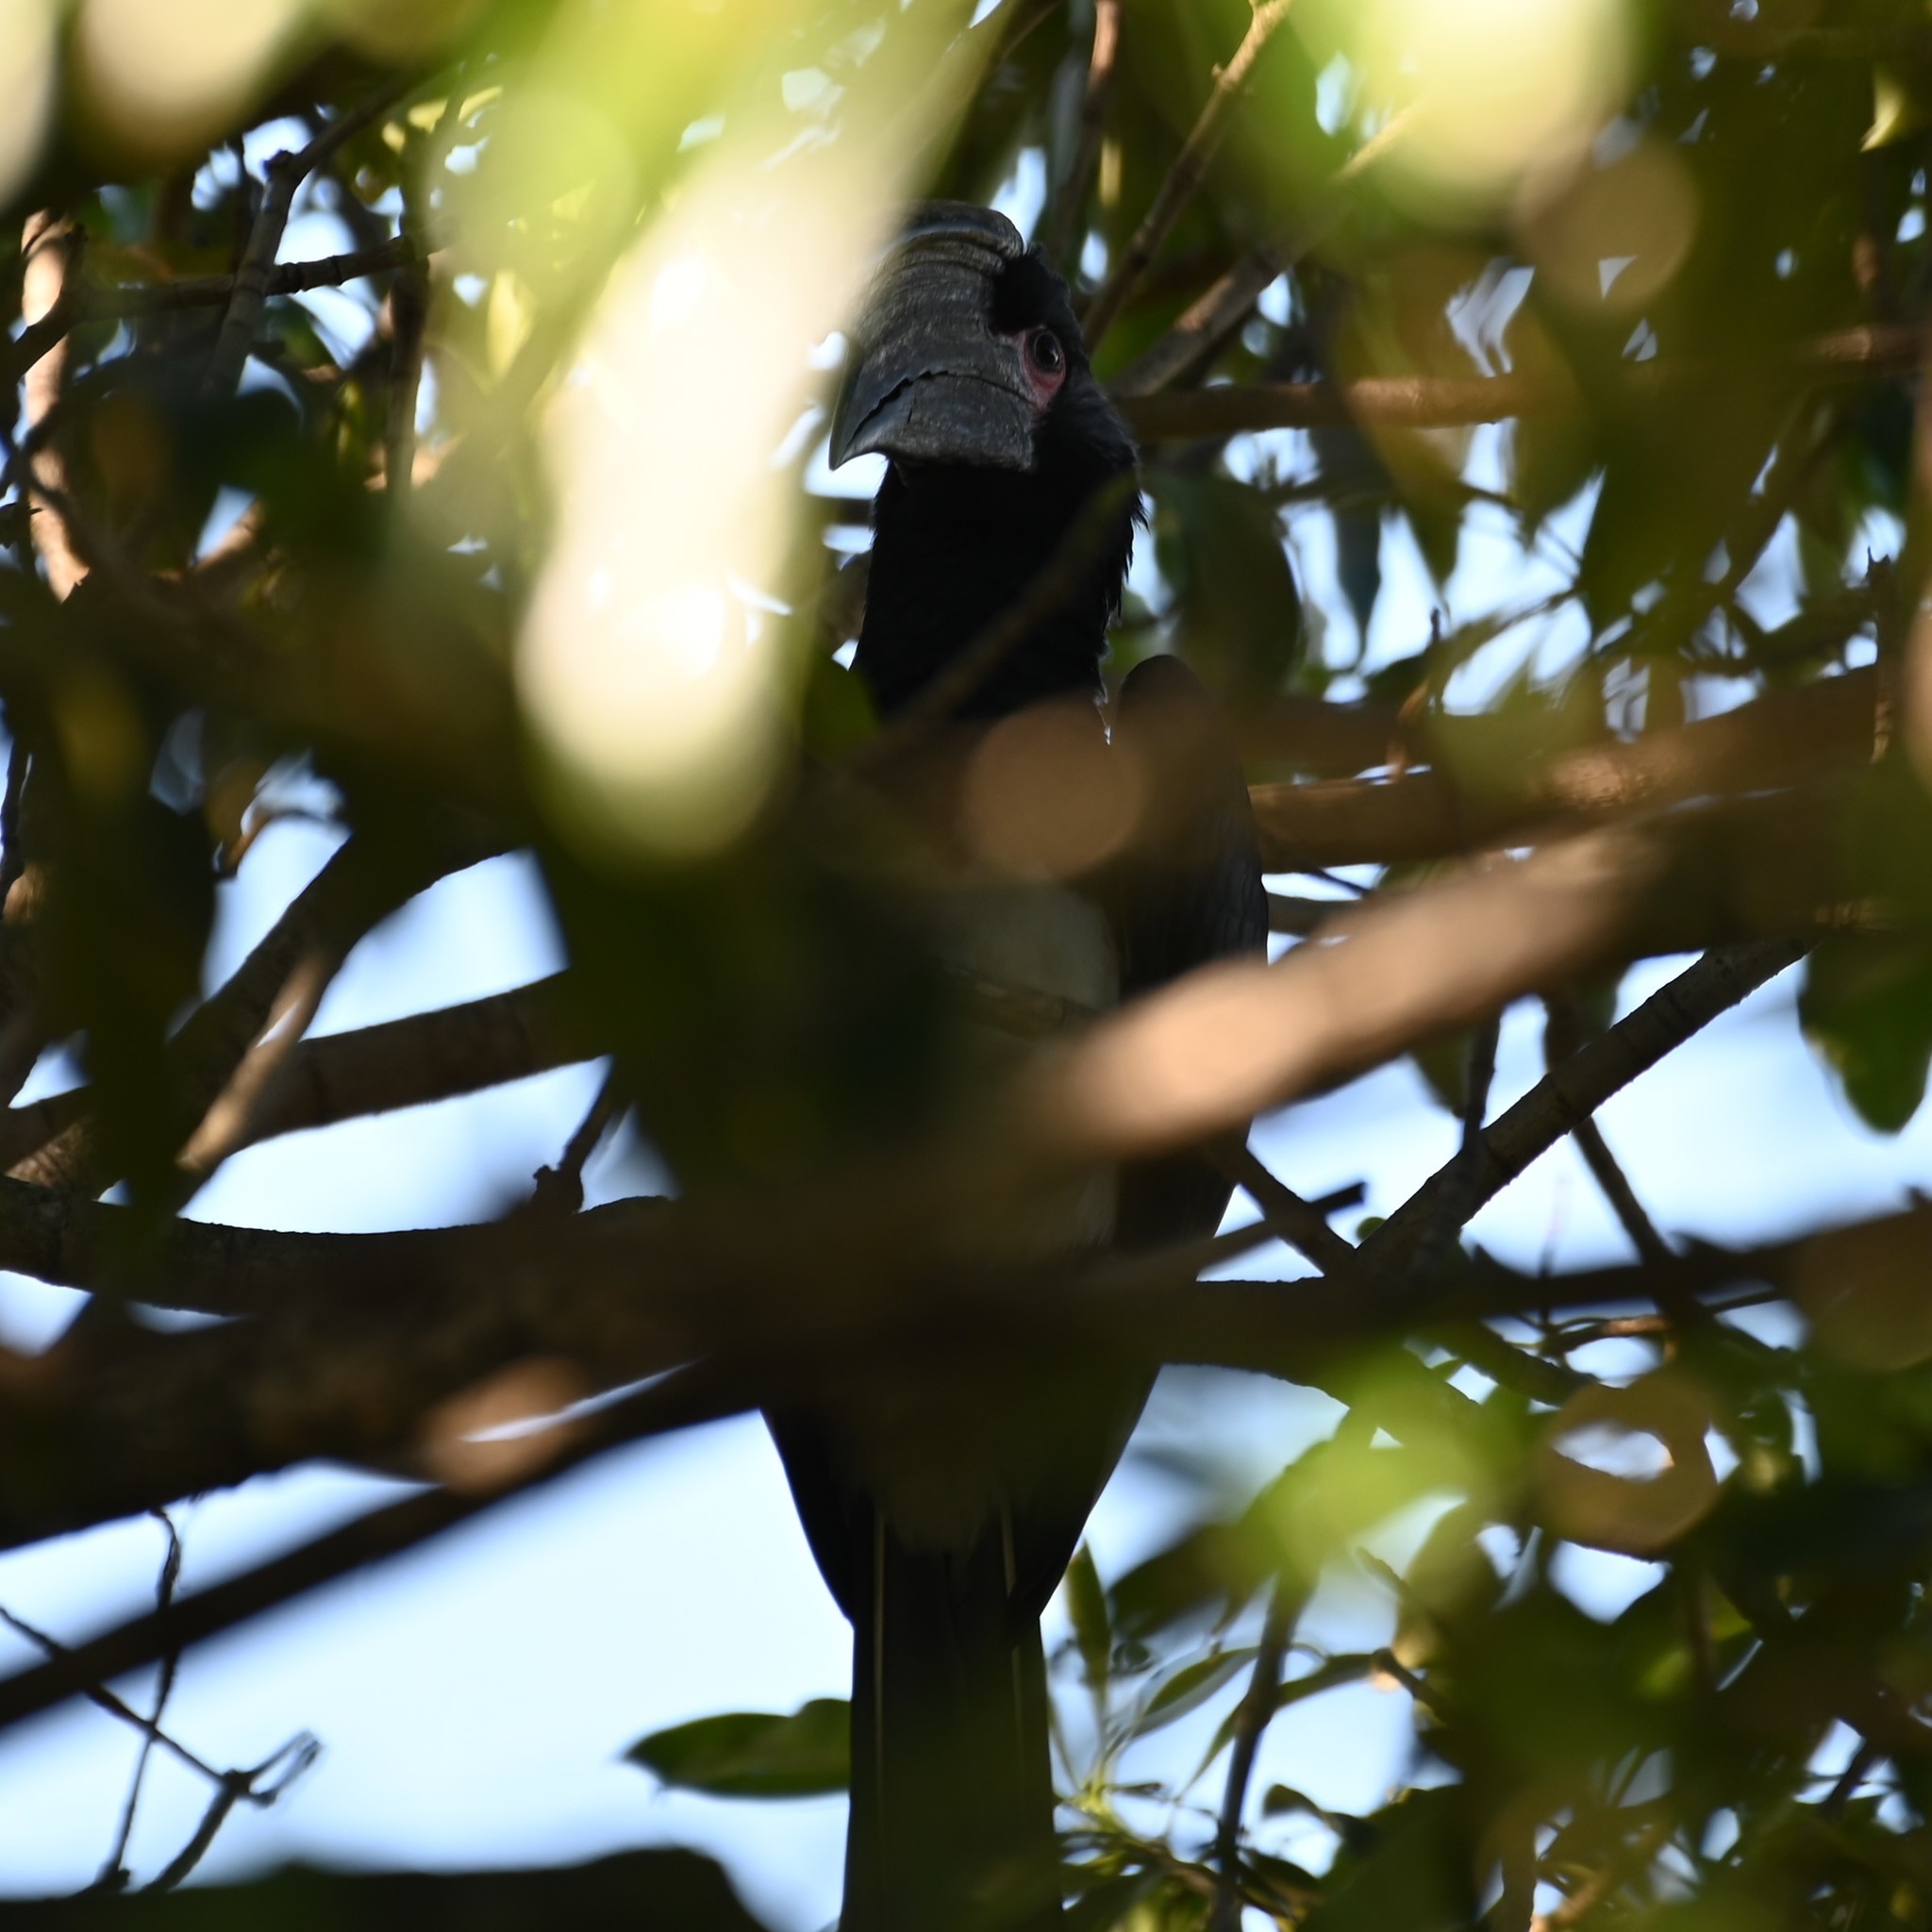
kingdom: Animalia
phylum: Chordata
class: Aves
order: Bucerotiformes
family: Bucerotidae
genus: Bycanistes
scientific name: Bycanistes bucinator
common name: Trumpeter hornbill
